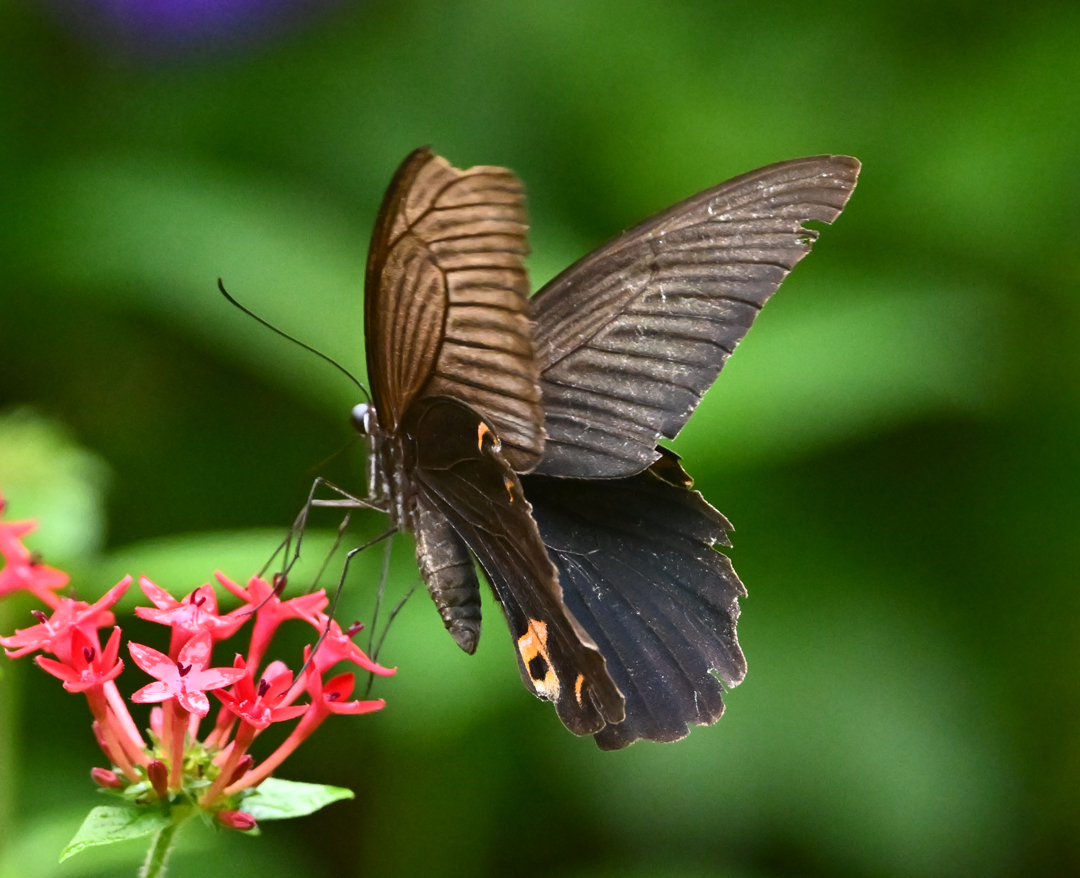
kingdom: Animalia
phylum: Arthropoda
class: Insecta
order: Lepidoptera
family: Papilionidae
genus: Papilio
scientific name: Papilio protenor
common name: Spangle
